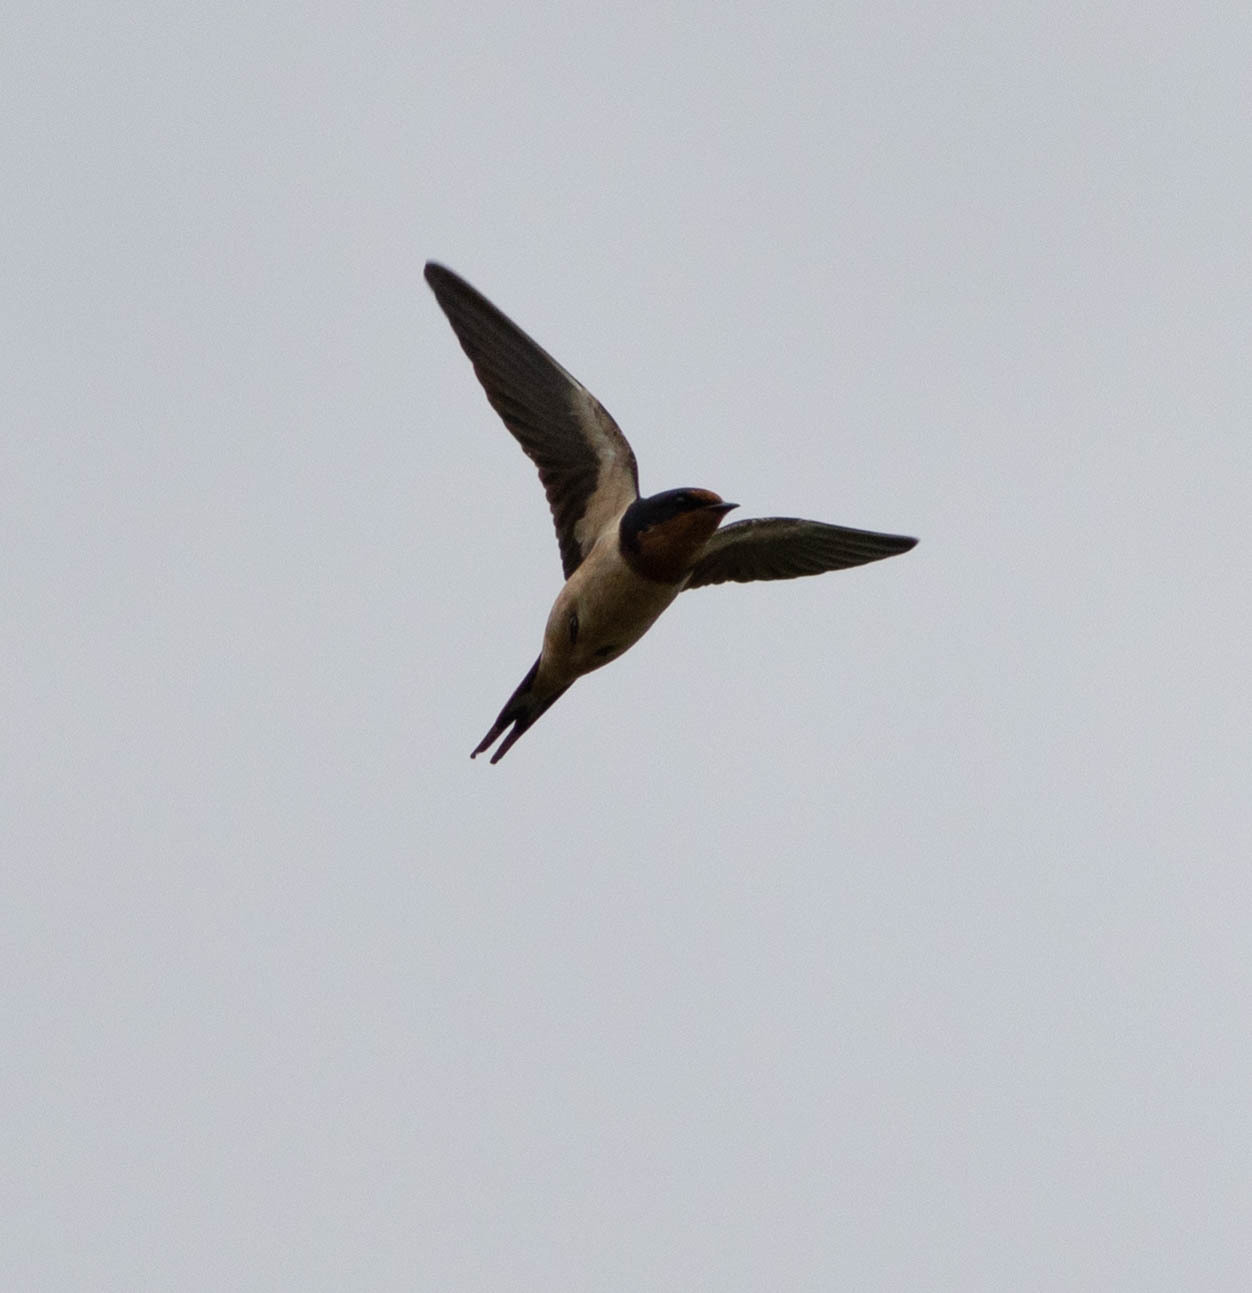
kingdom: Animalia
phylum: Chordata
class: Aves
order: Passeriformes
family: Hirundinidae
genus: Hirundo
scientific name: Hirundo rustica
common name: Barn swallow
